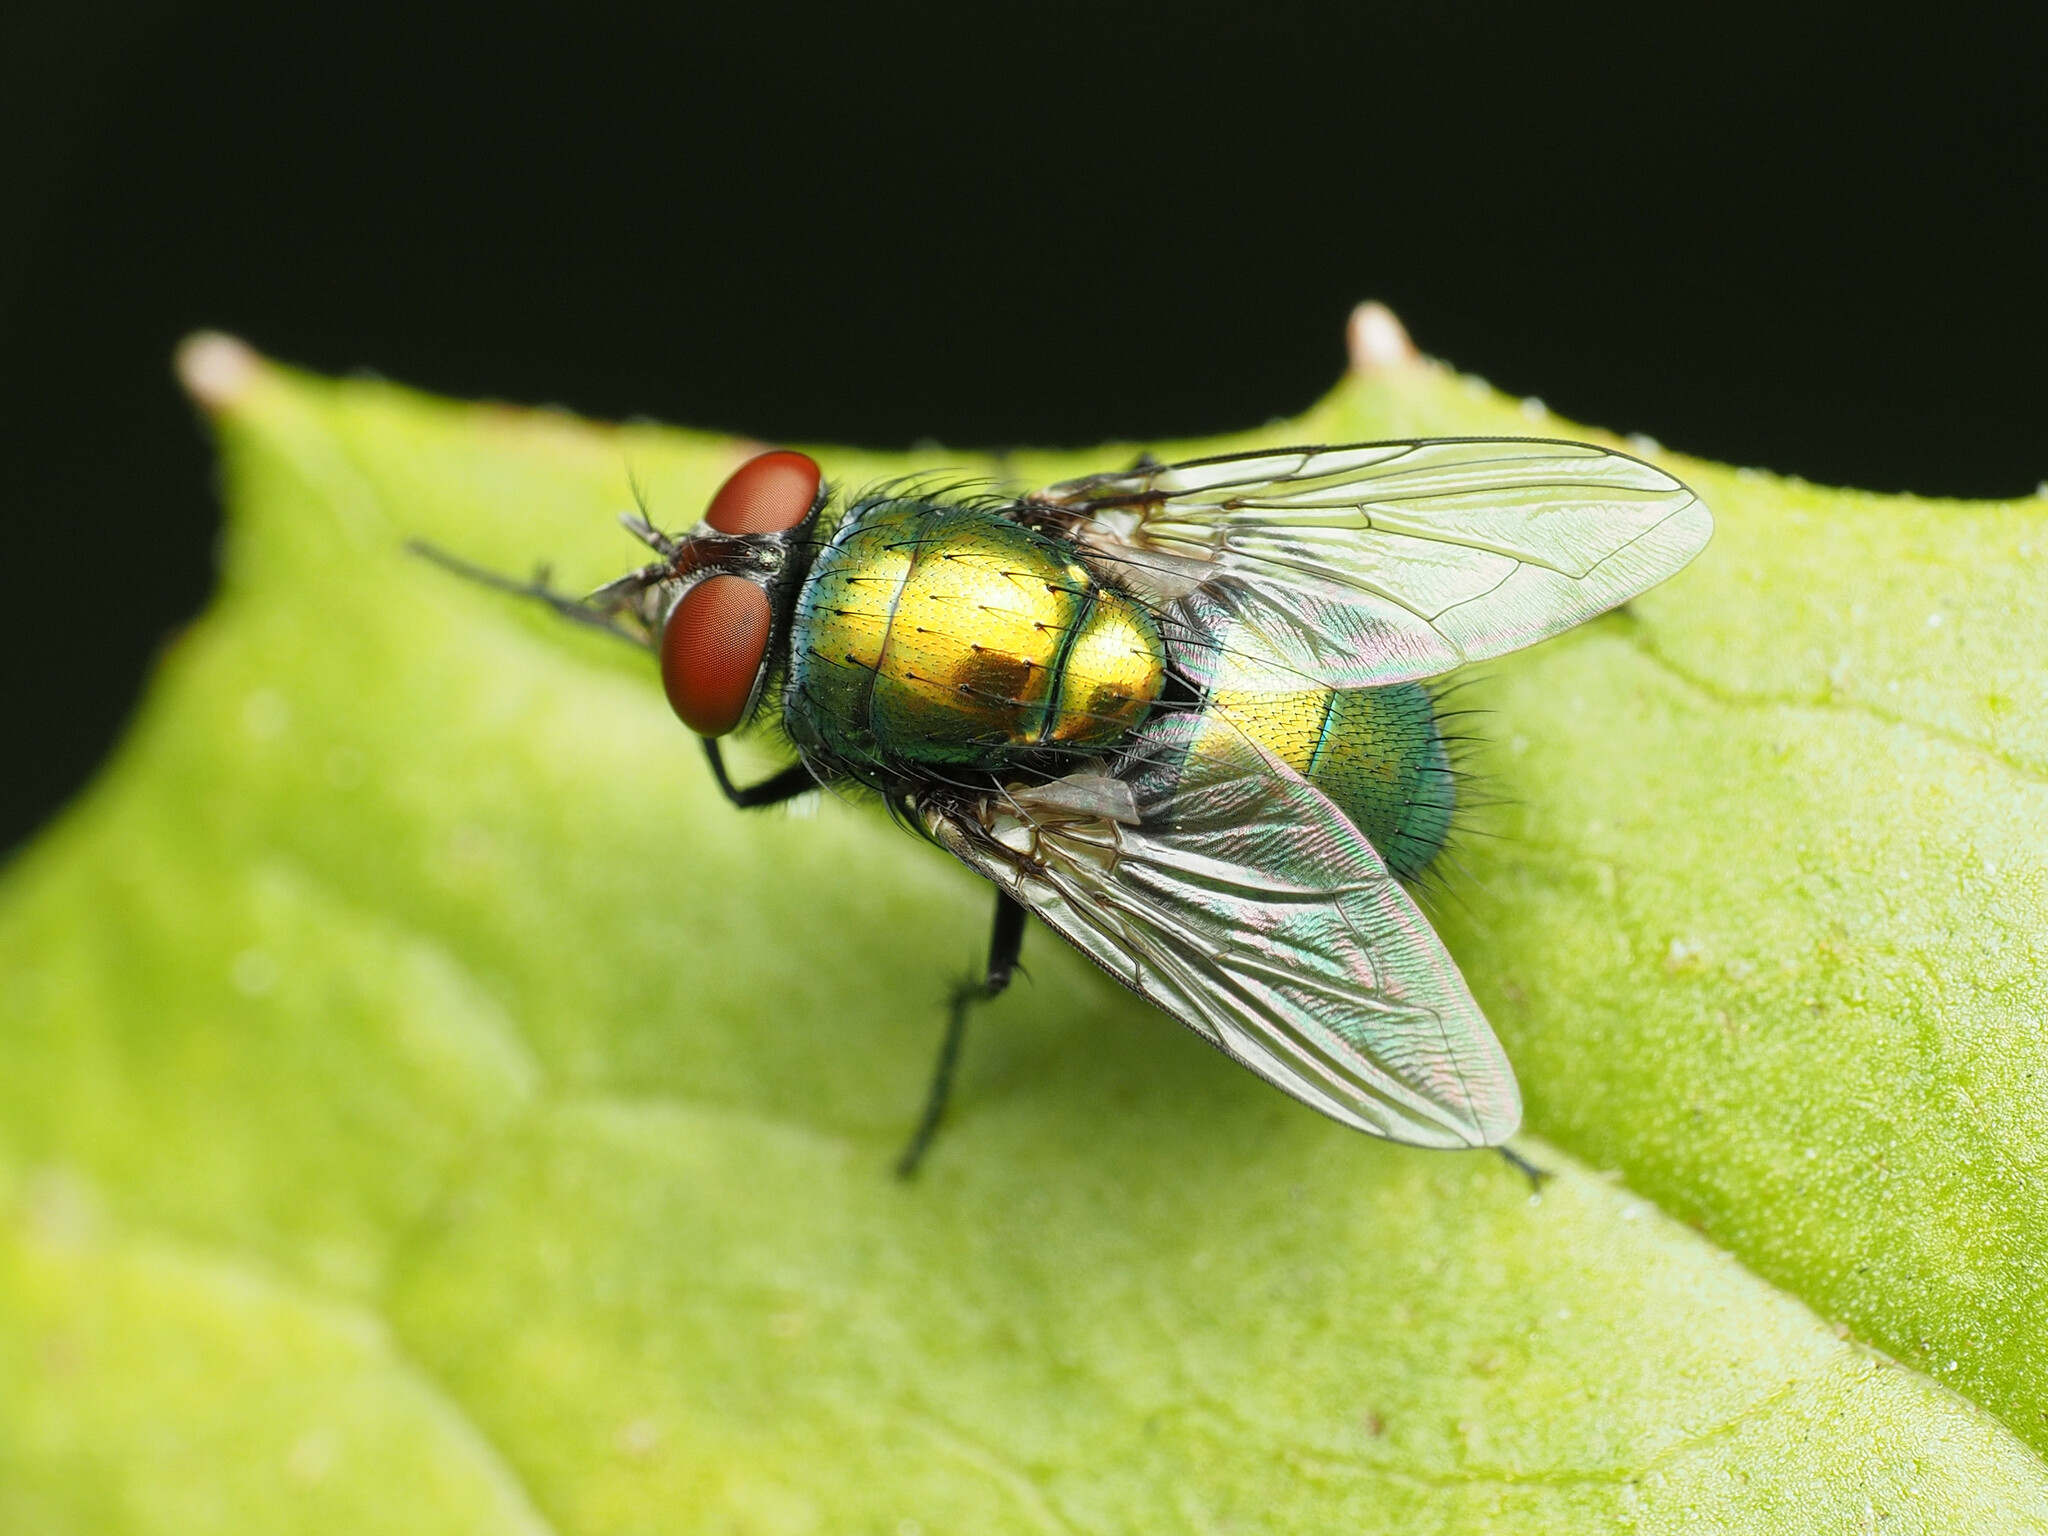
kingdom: Animalia
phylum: Arthropoda
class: Insecta
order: Diptera
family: Calliphoridae
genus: Lucilia
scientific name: Lucilia sericata
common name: Blow fly
